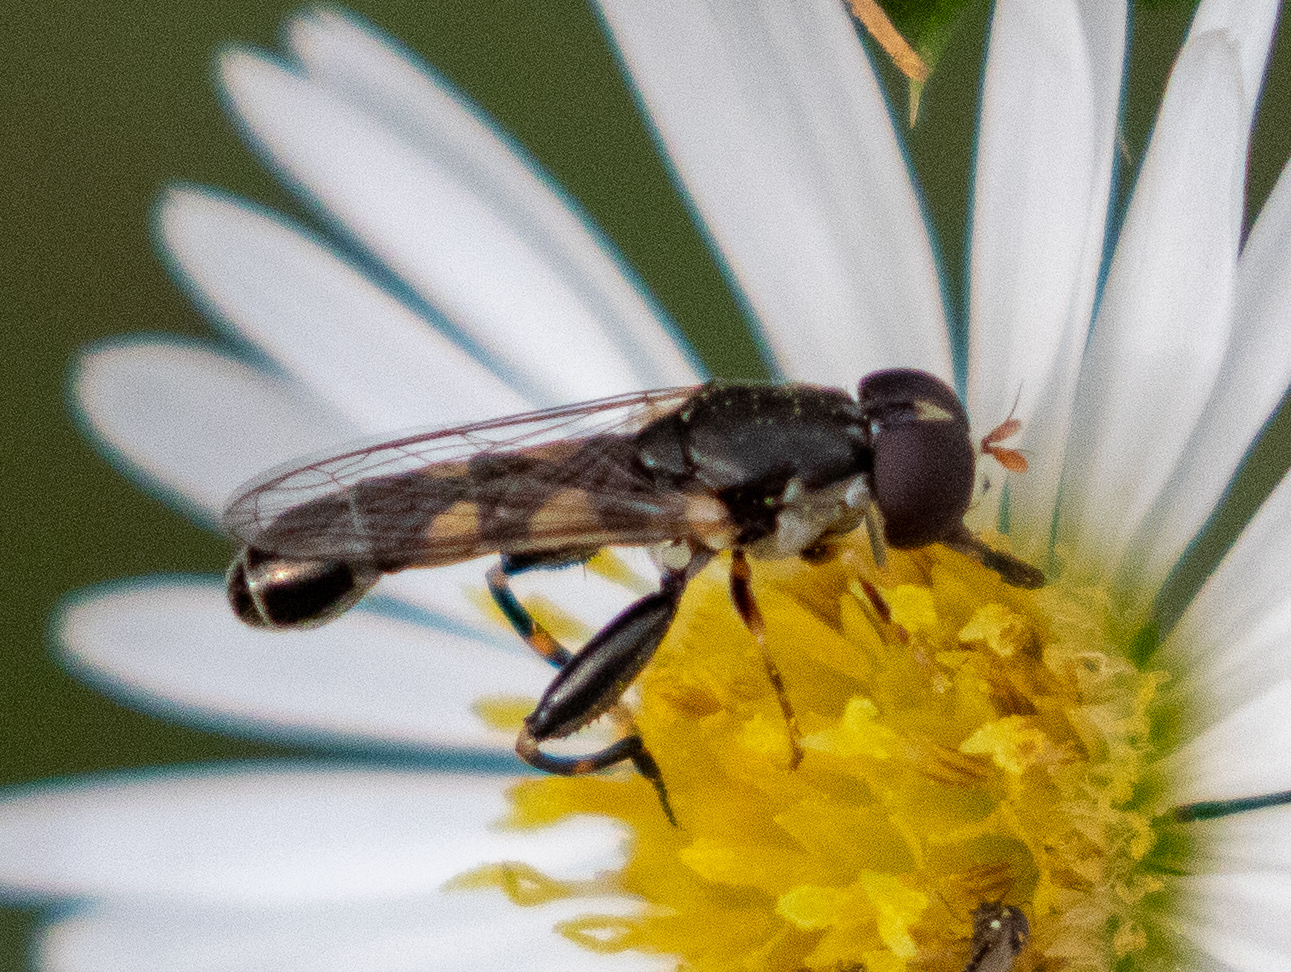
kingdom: Animalia
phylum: Arthropoda
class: Insecta
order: Diptera
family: Syrphidae
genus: Syritta
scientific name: Syritta pipiens
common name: Hover fly
